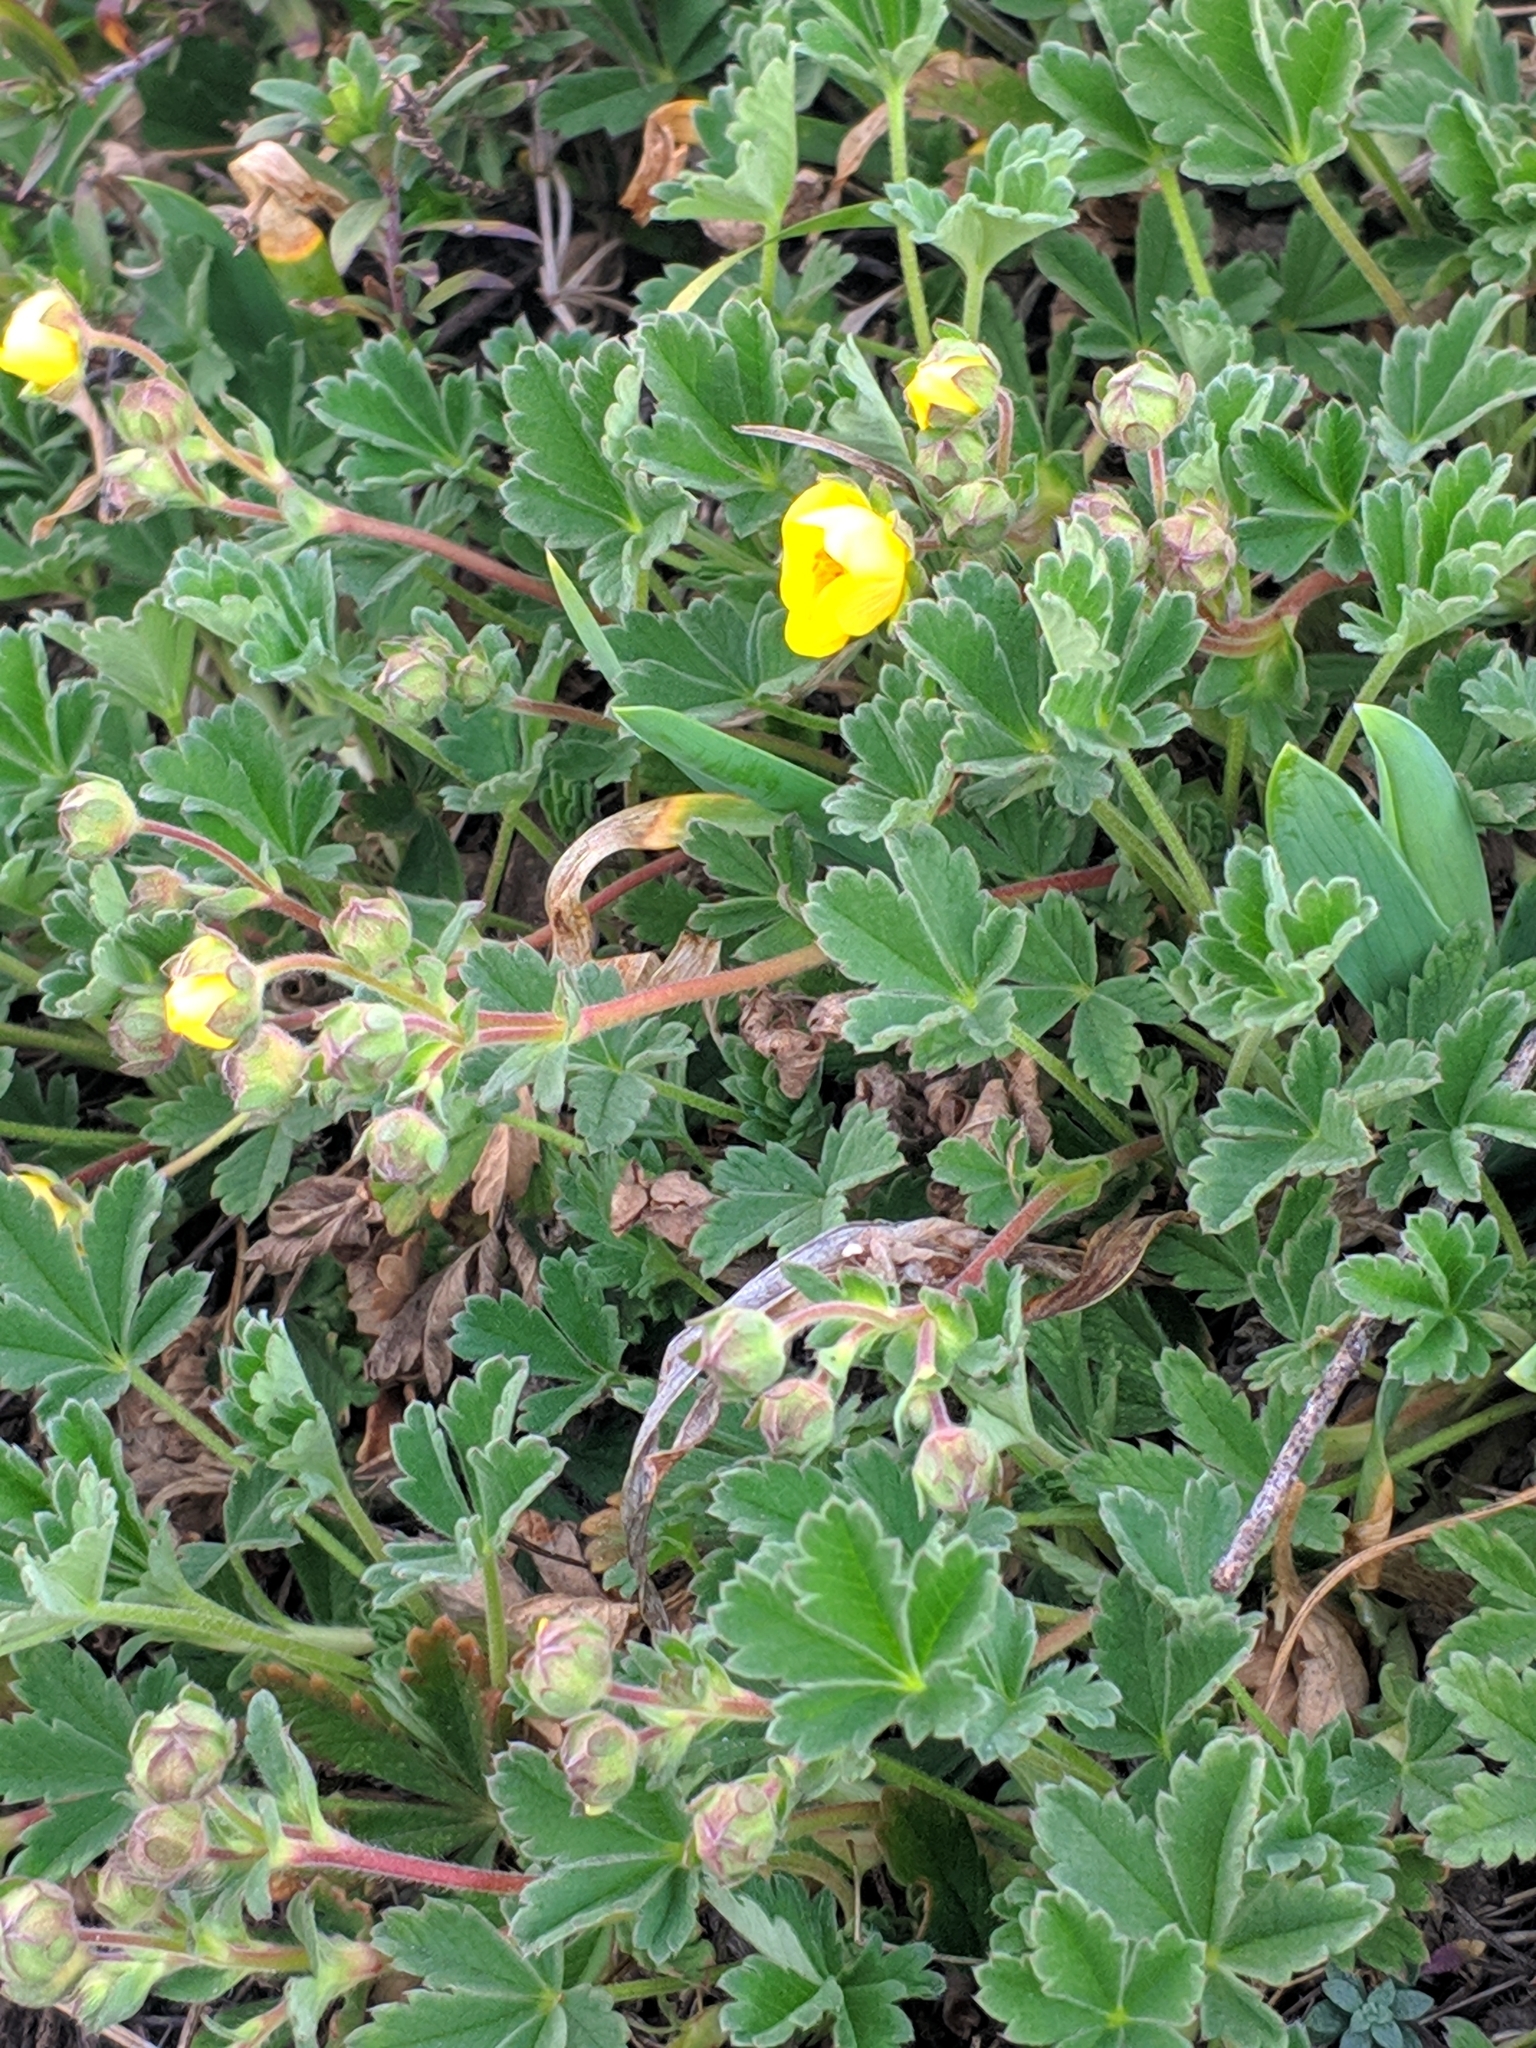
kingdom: Plantae
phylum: Tracheophyta
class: Magnoliopsida
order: Rosales
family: Rosaceae
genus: Potentilla
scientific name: Potentilla incana
